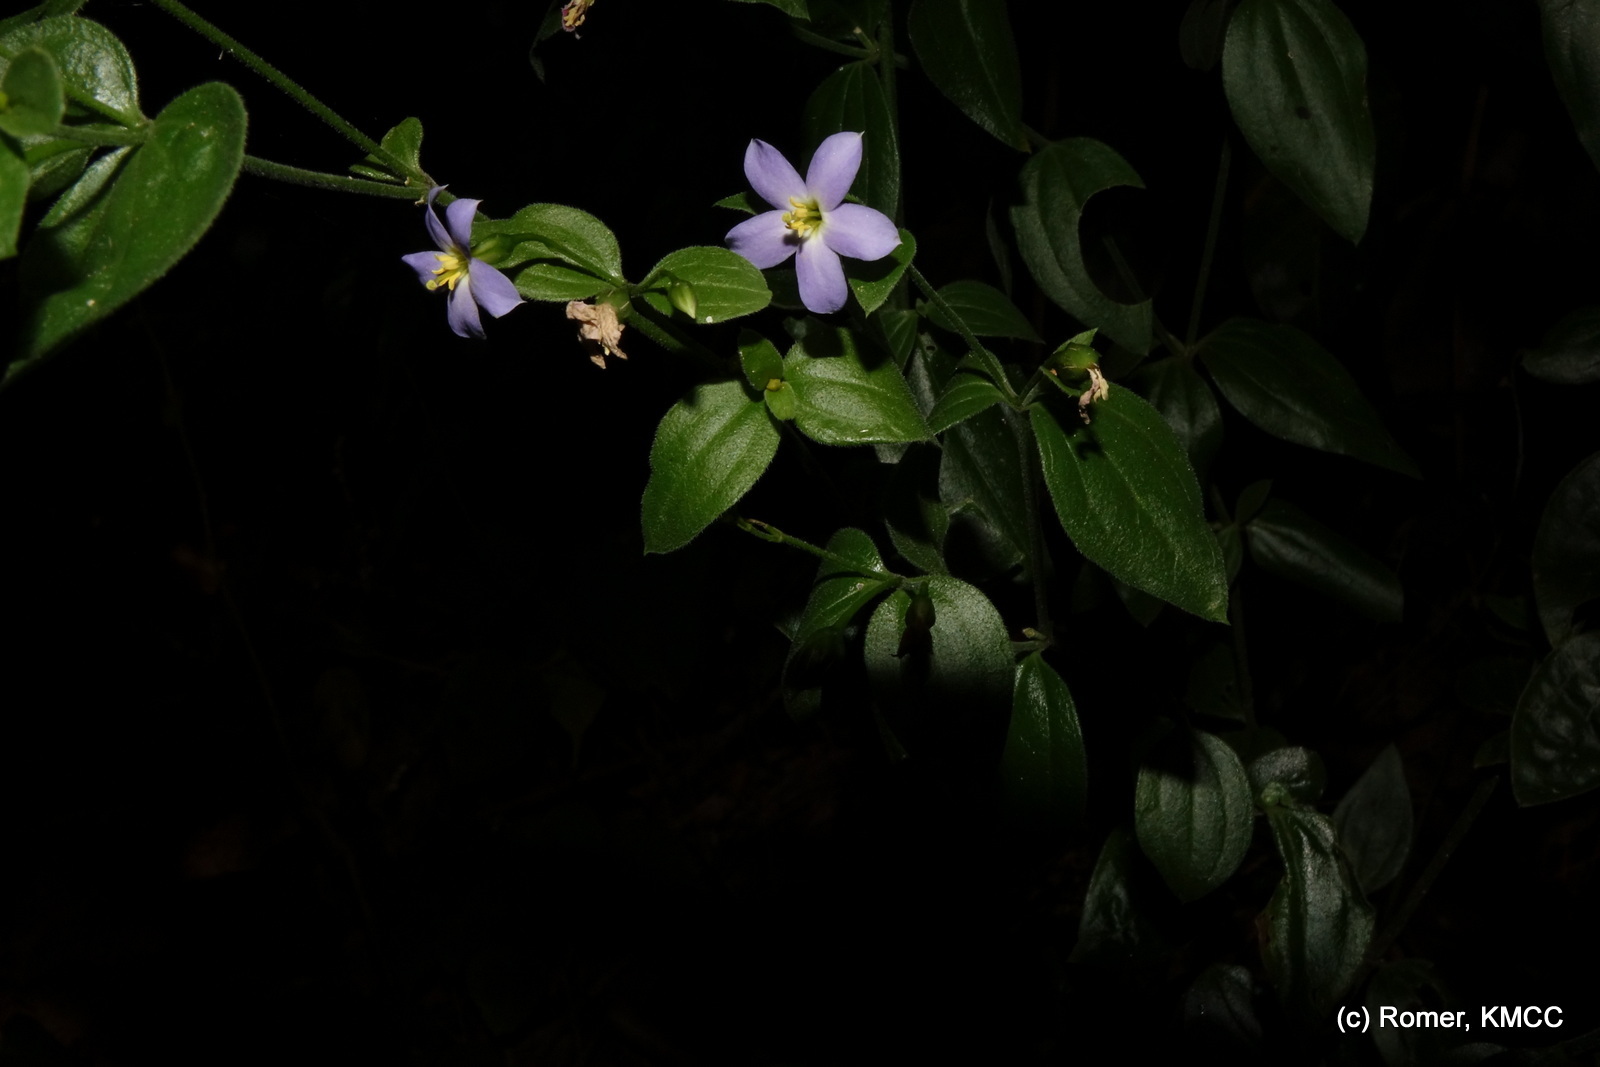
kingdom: Plantae
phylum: Tracheophyta
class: Magnoliopsida
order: Gentianales
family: Gentianaceae
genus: Exacum
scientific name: Exacum lokohense
